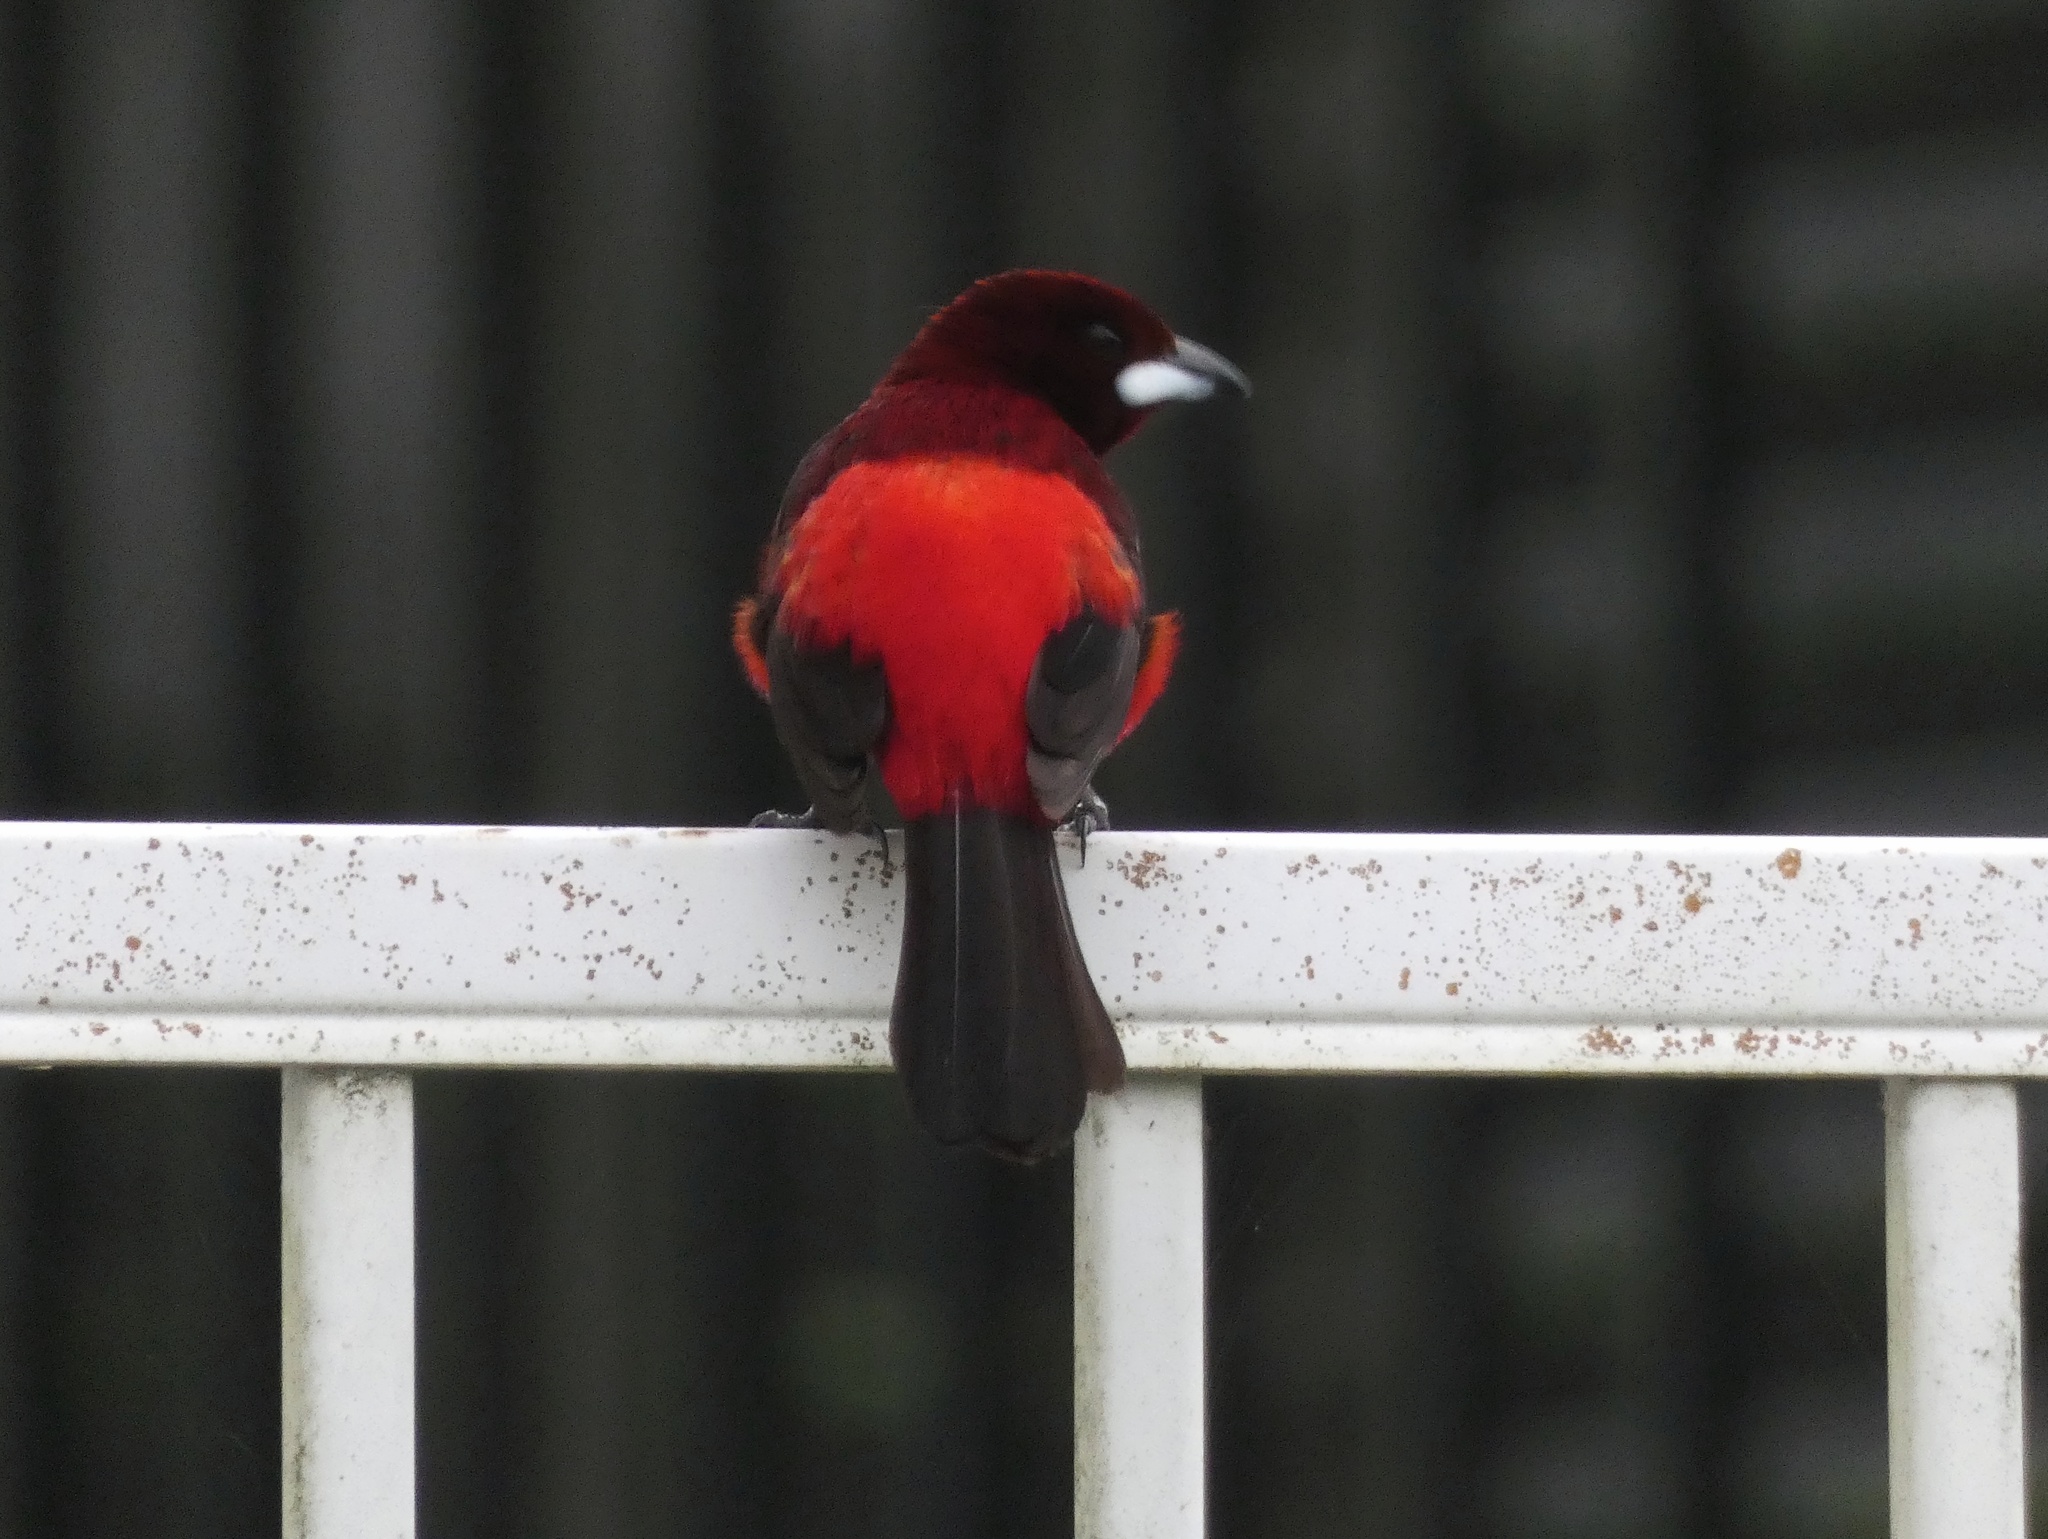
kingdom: Animalia
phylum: Chordata
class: Aves
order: Passeriformes
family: Thraupidae
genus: Ramphocelus
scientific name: Ramphocelus dimidiatus
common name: Crimson-backed tanager
